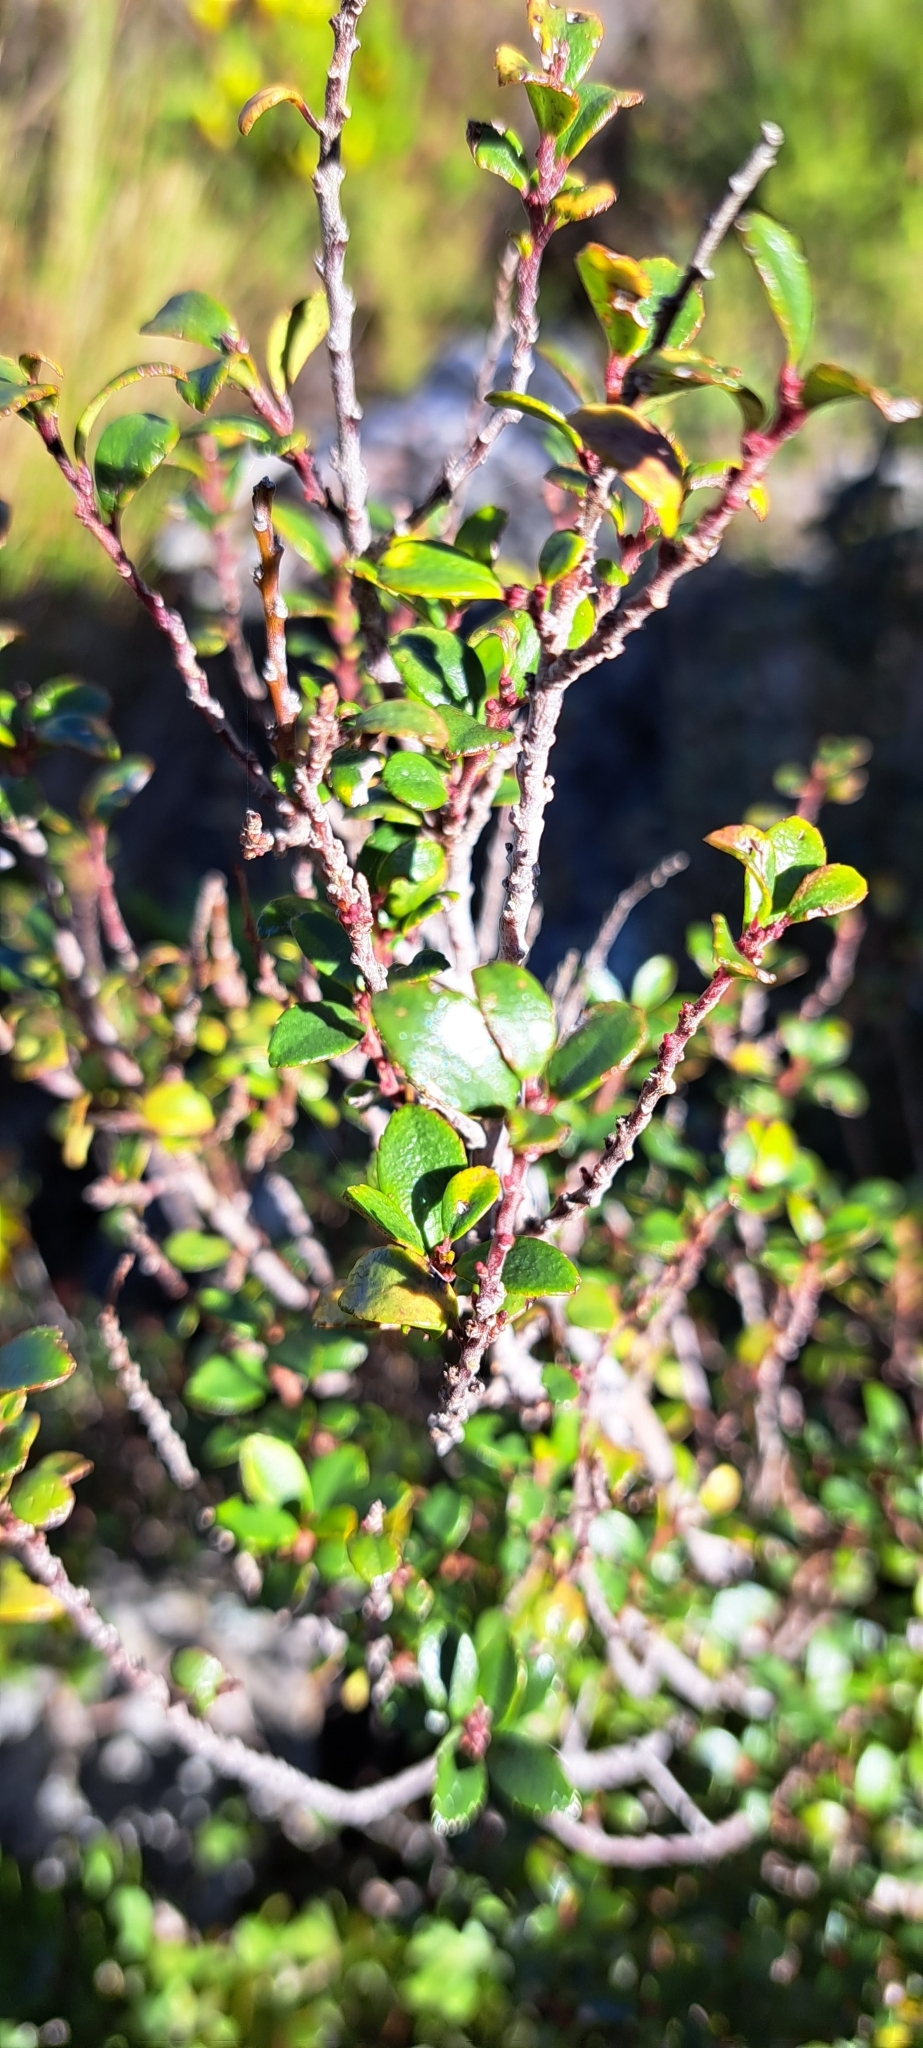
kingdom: Plantae
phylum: Tracheophyta
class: Magnoliopsida
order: Ericales
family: Primulaceae
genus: Myrsine
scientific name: Myrsine africana
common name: African-boxwood
